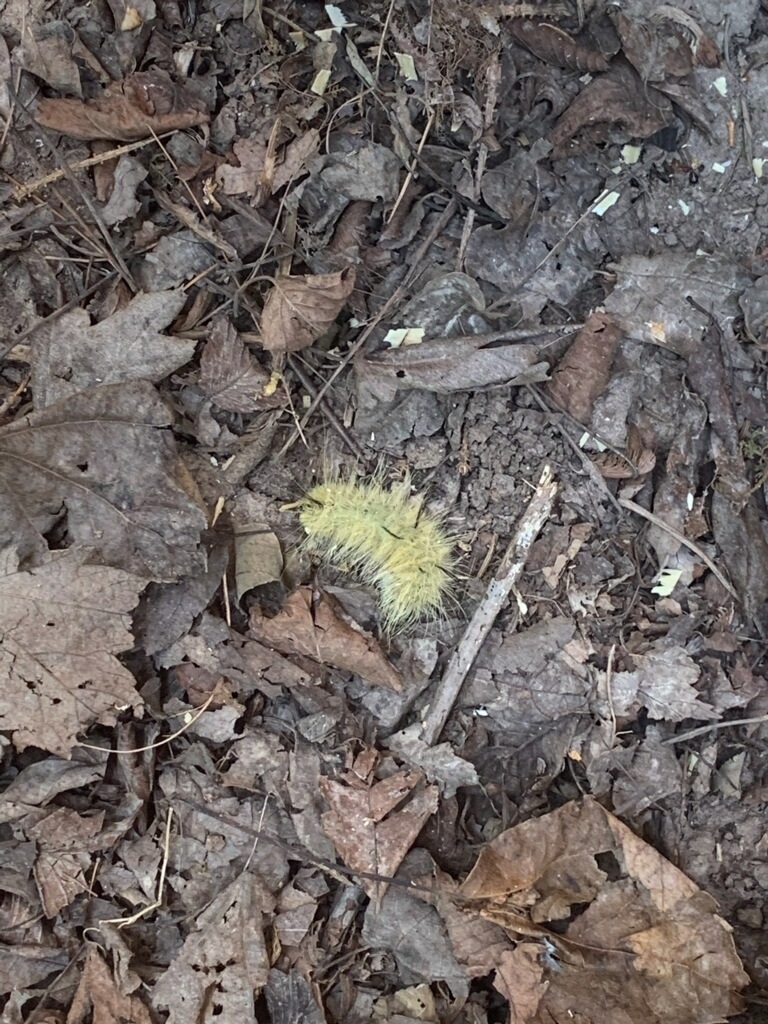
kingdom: Animalia
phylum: Arthropoda
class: Insecta
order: Lepidoptera
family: Noctuidae
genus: Acronicta
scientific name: Acronicta americana
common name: American dagger
